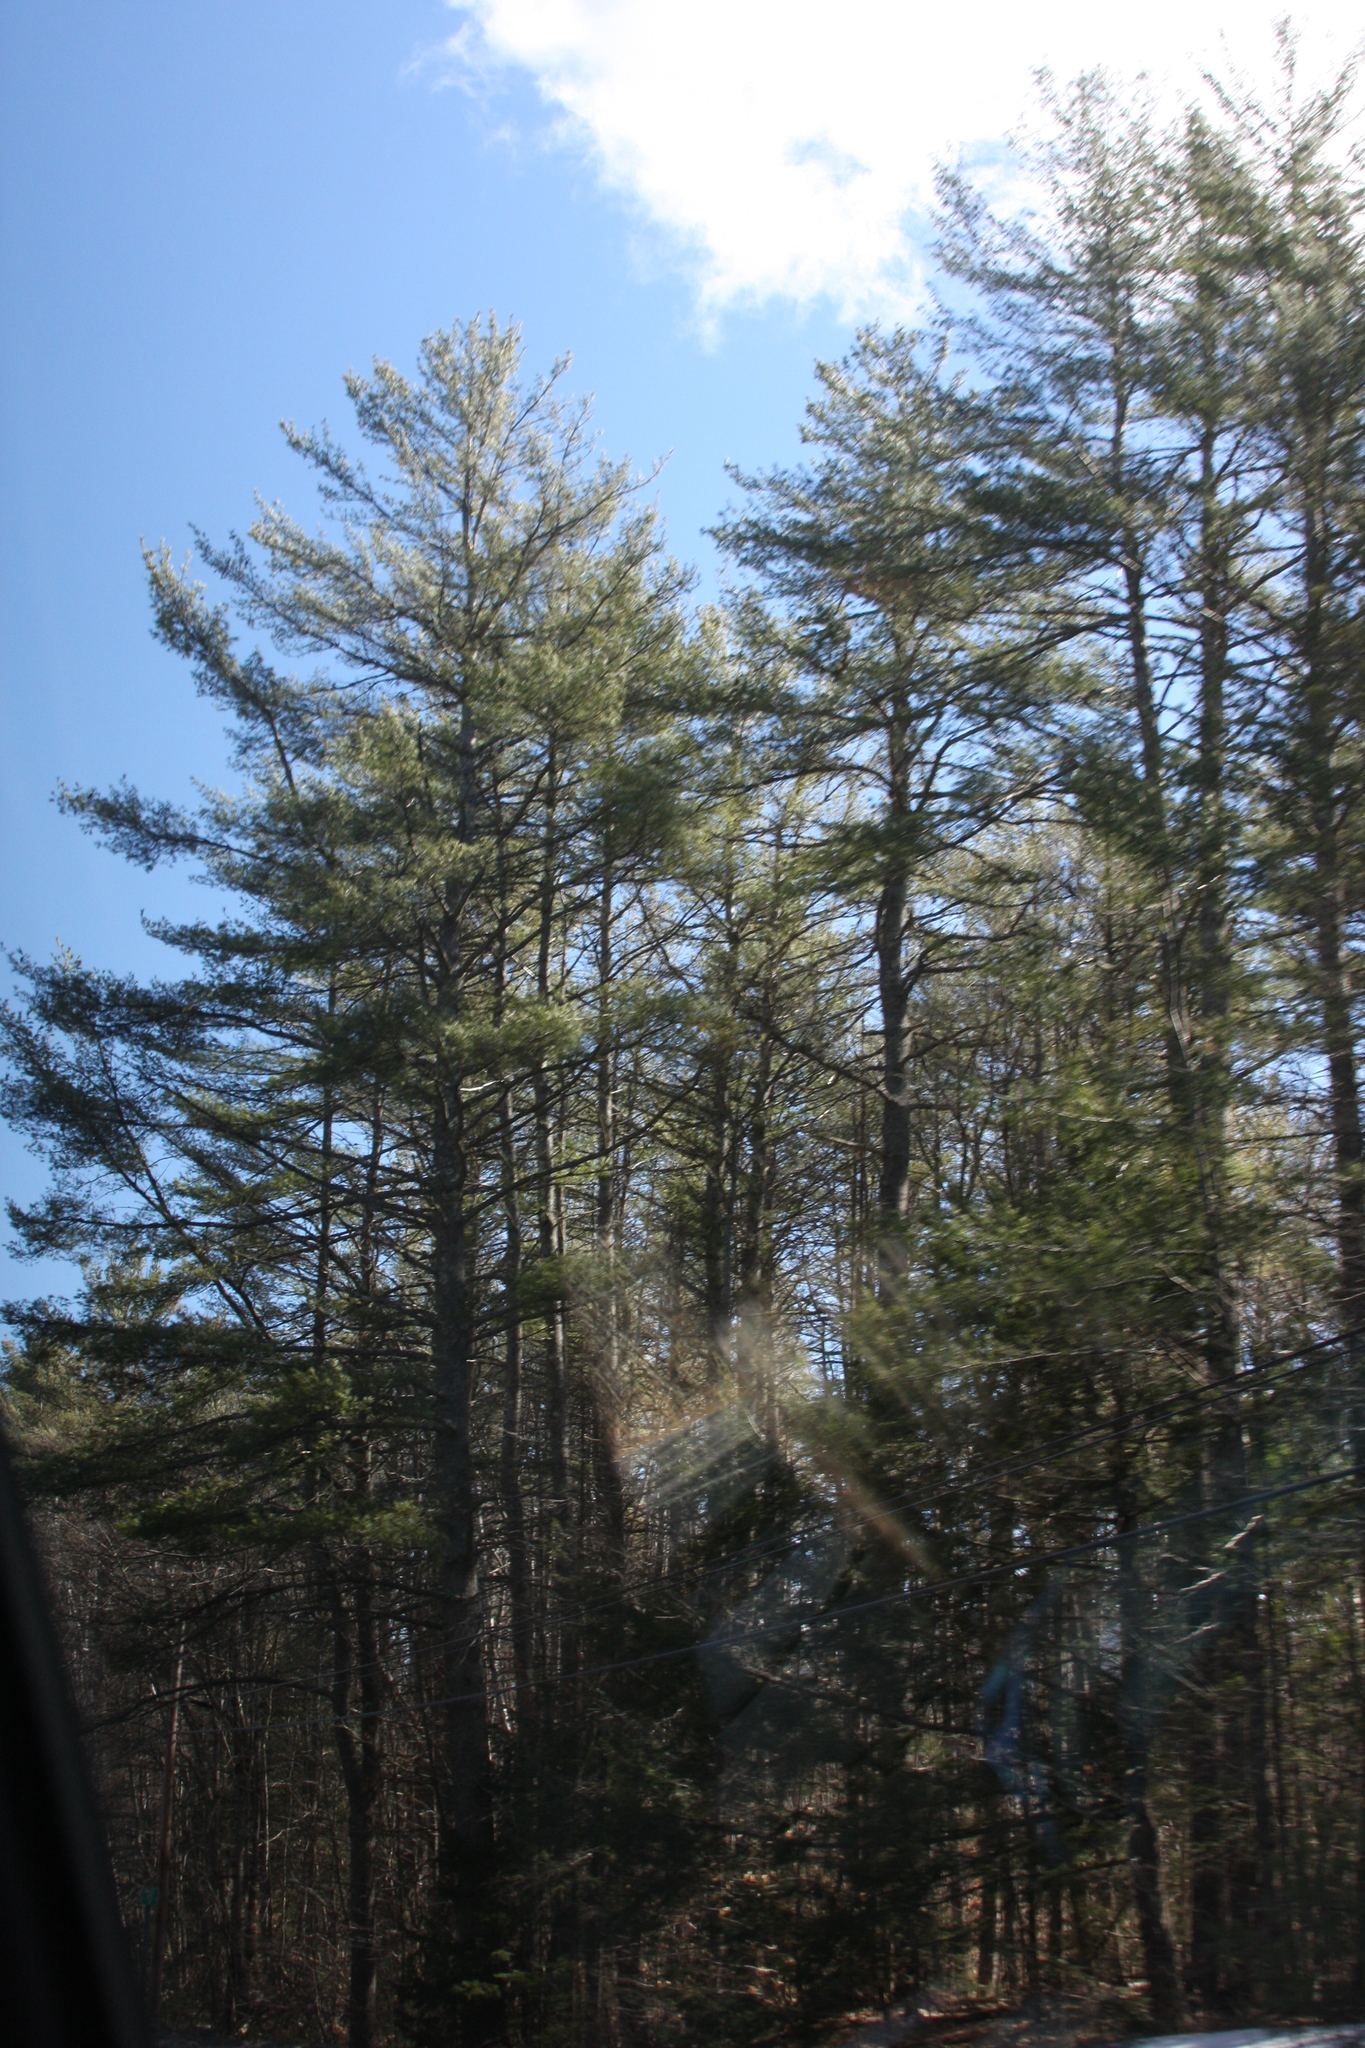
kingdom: Plantae
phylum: Tracheophyta
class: Pinopsida
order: Pinales
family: Pinaceae
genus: Pinus
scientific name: Pinus strobus
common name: Weymouth pine
